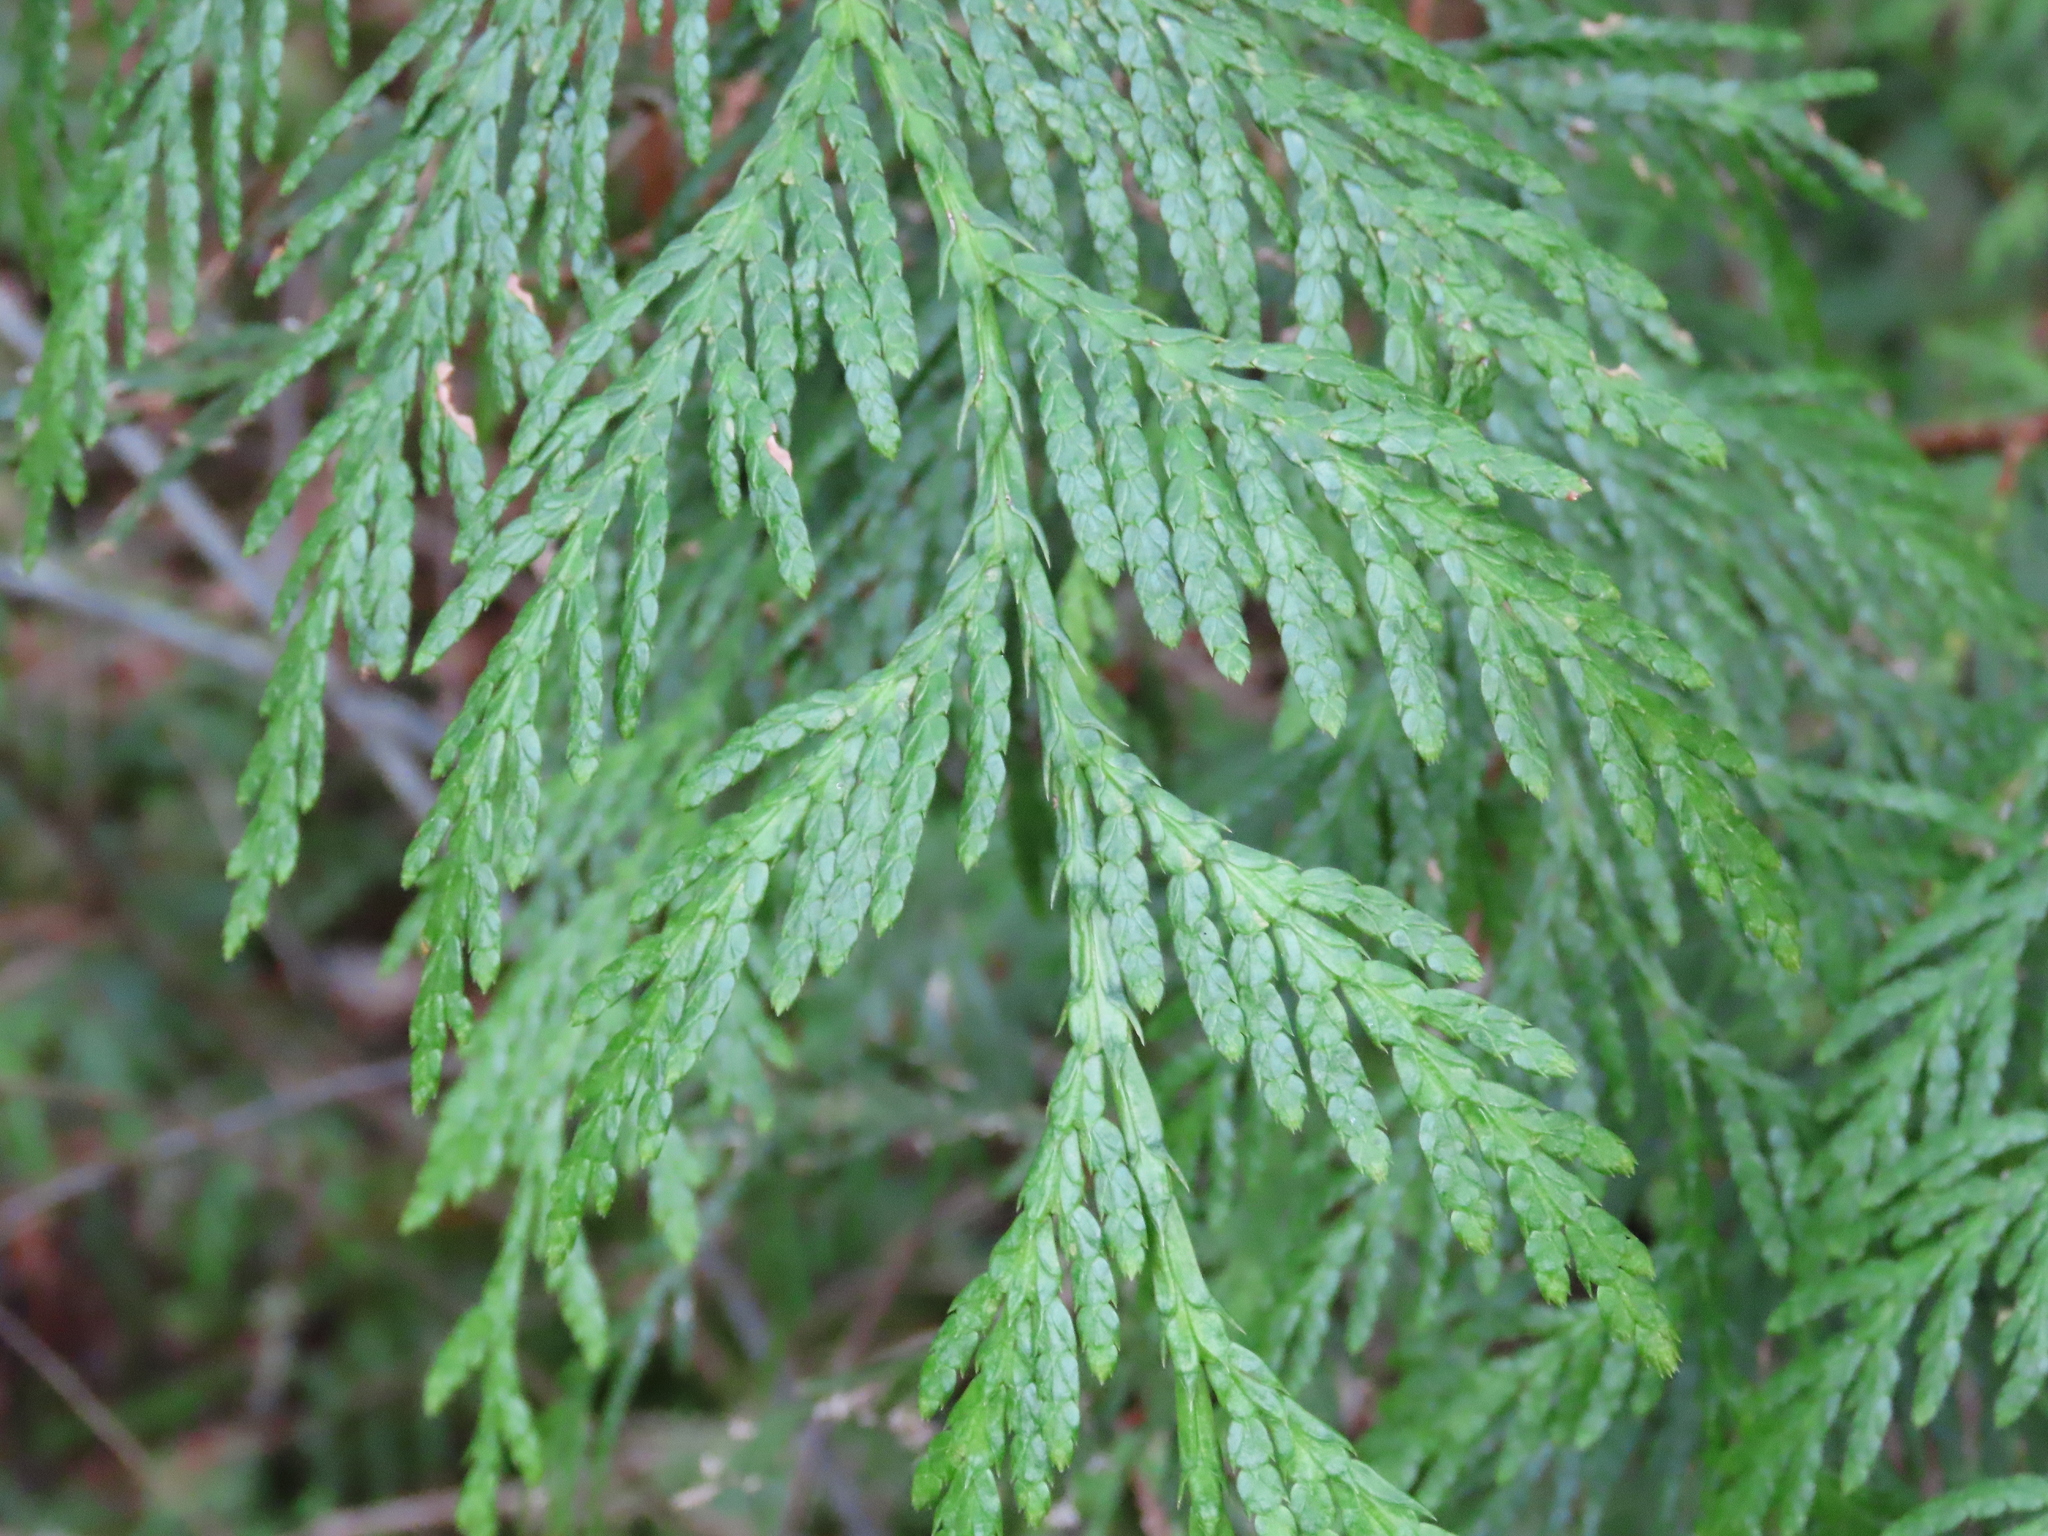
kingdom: Plantae
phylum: Tracheophyta
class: Pinopsida
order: Pinales
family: Cupressaceae
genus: Thuja
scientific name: Thuja plicata
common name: Western red-cedar
